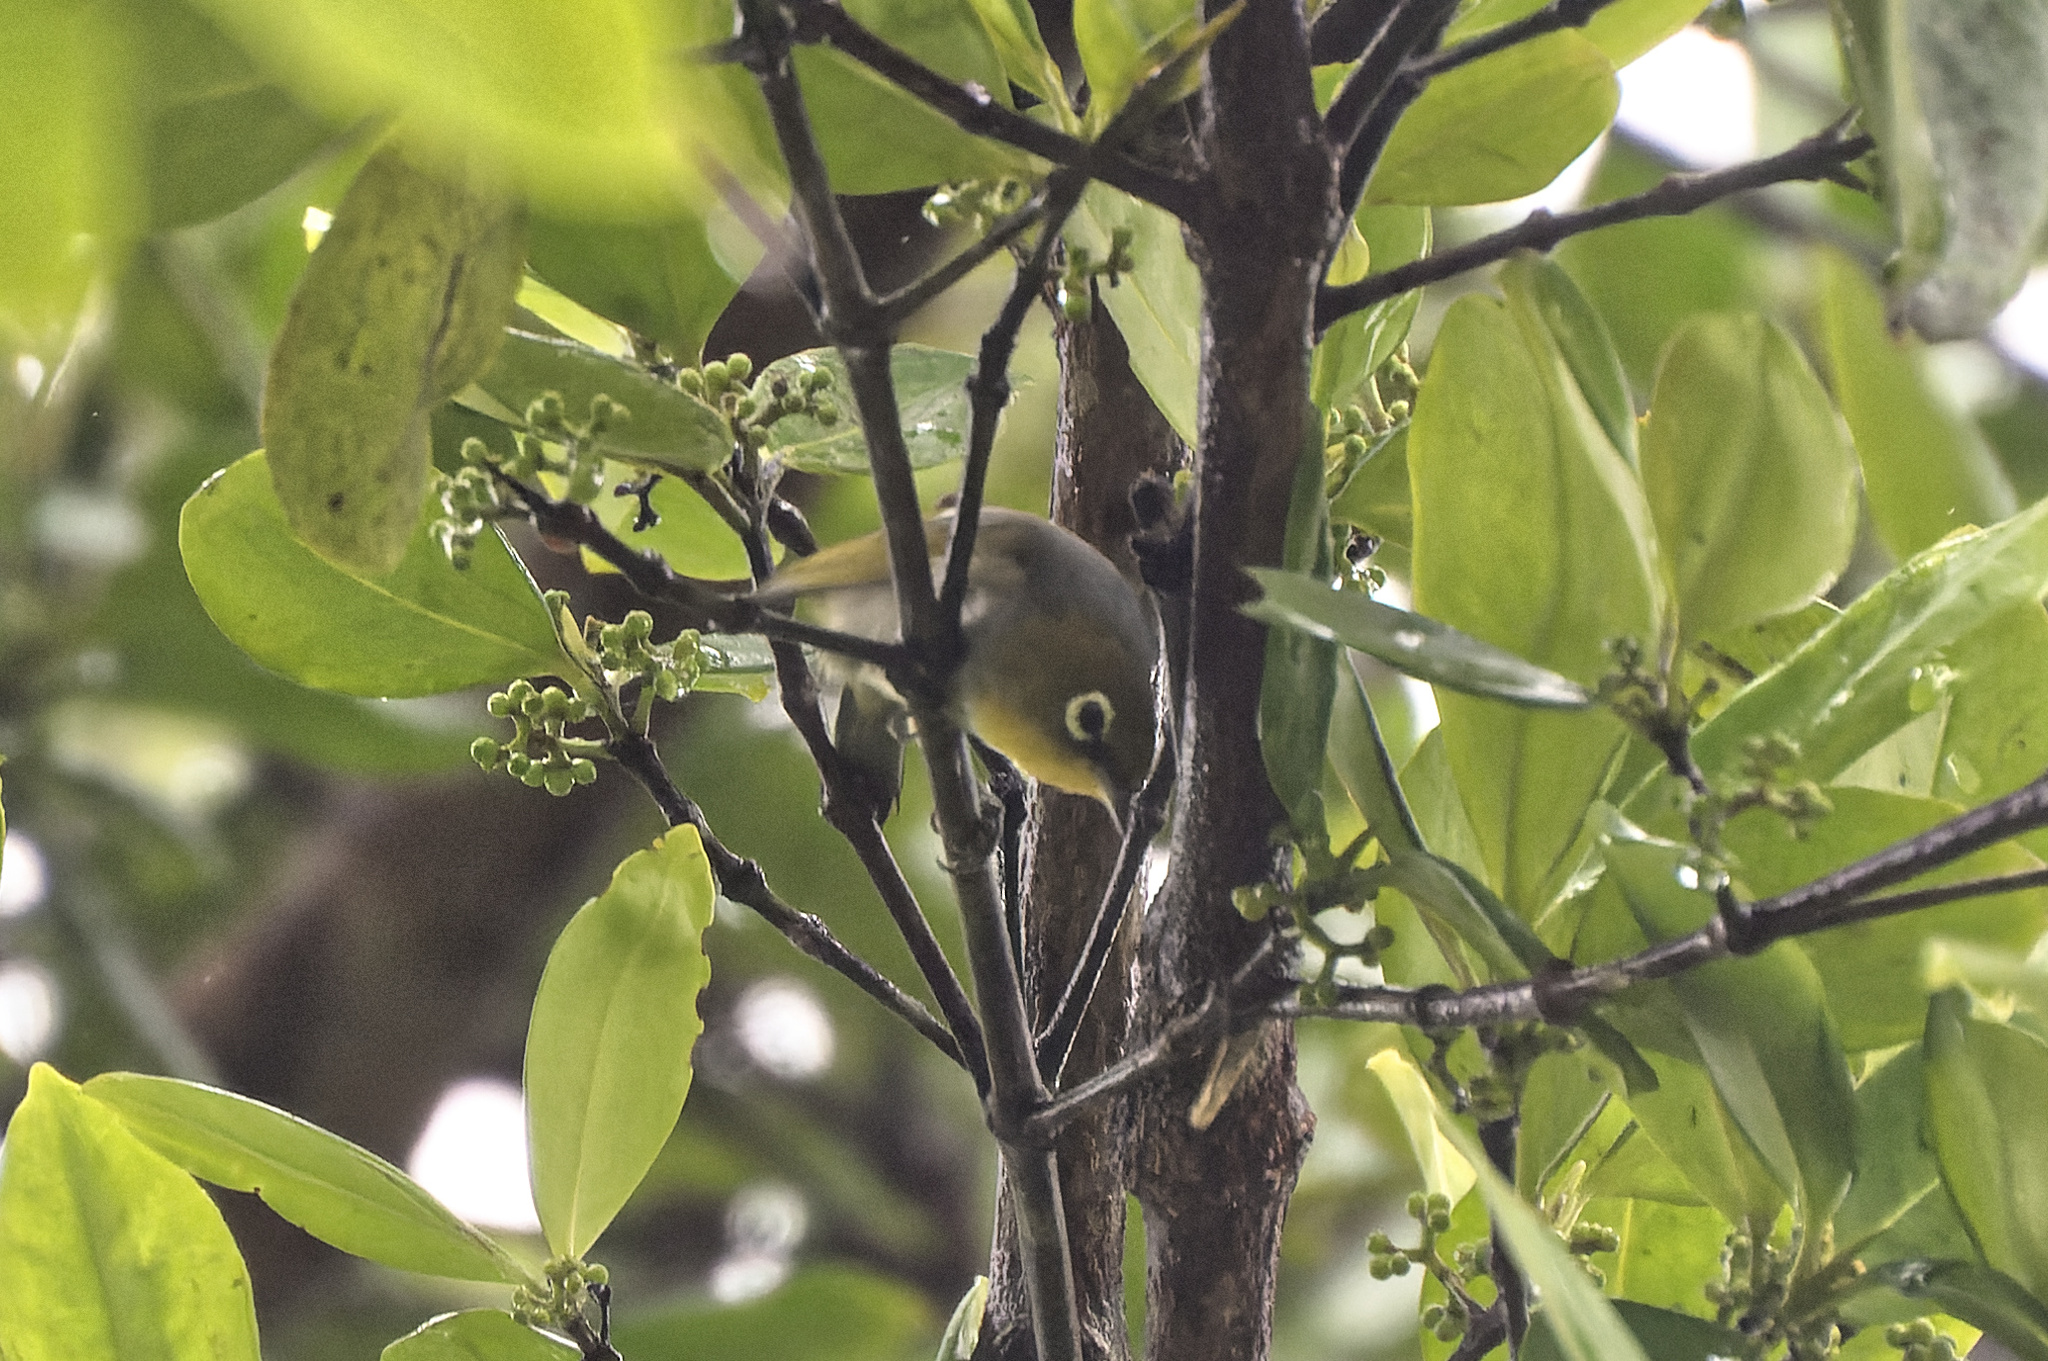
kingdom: Animalia
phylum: Chordata
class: Aves
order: Passeriformes
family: Zosteropidae
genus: Zosterops
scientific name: Zosterops lateralis
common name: Silvereye
